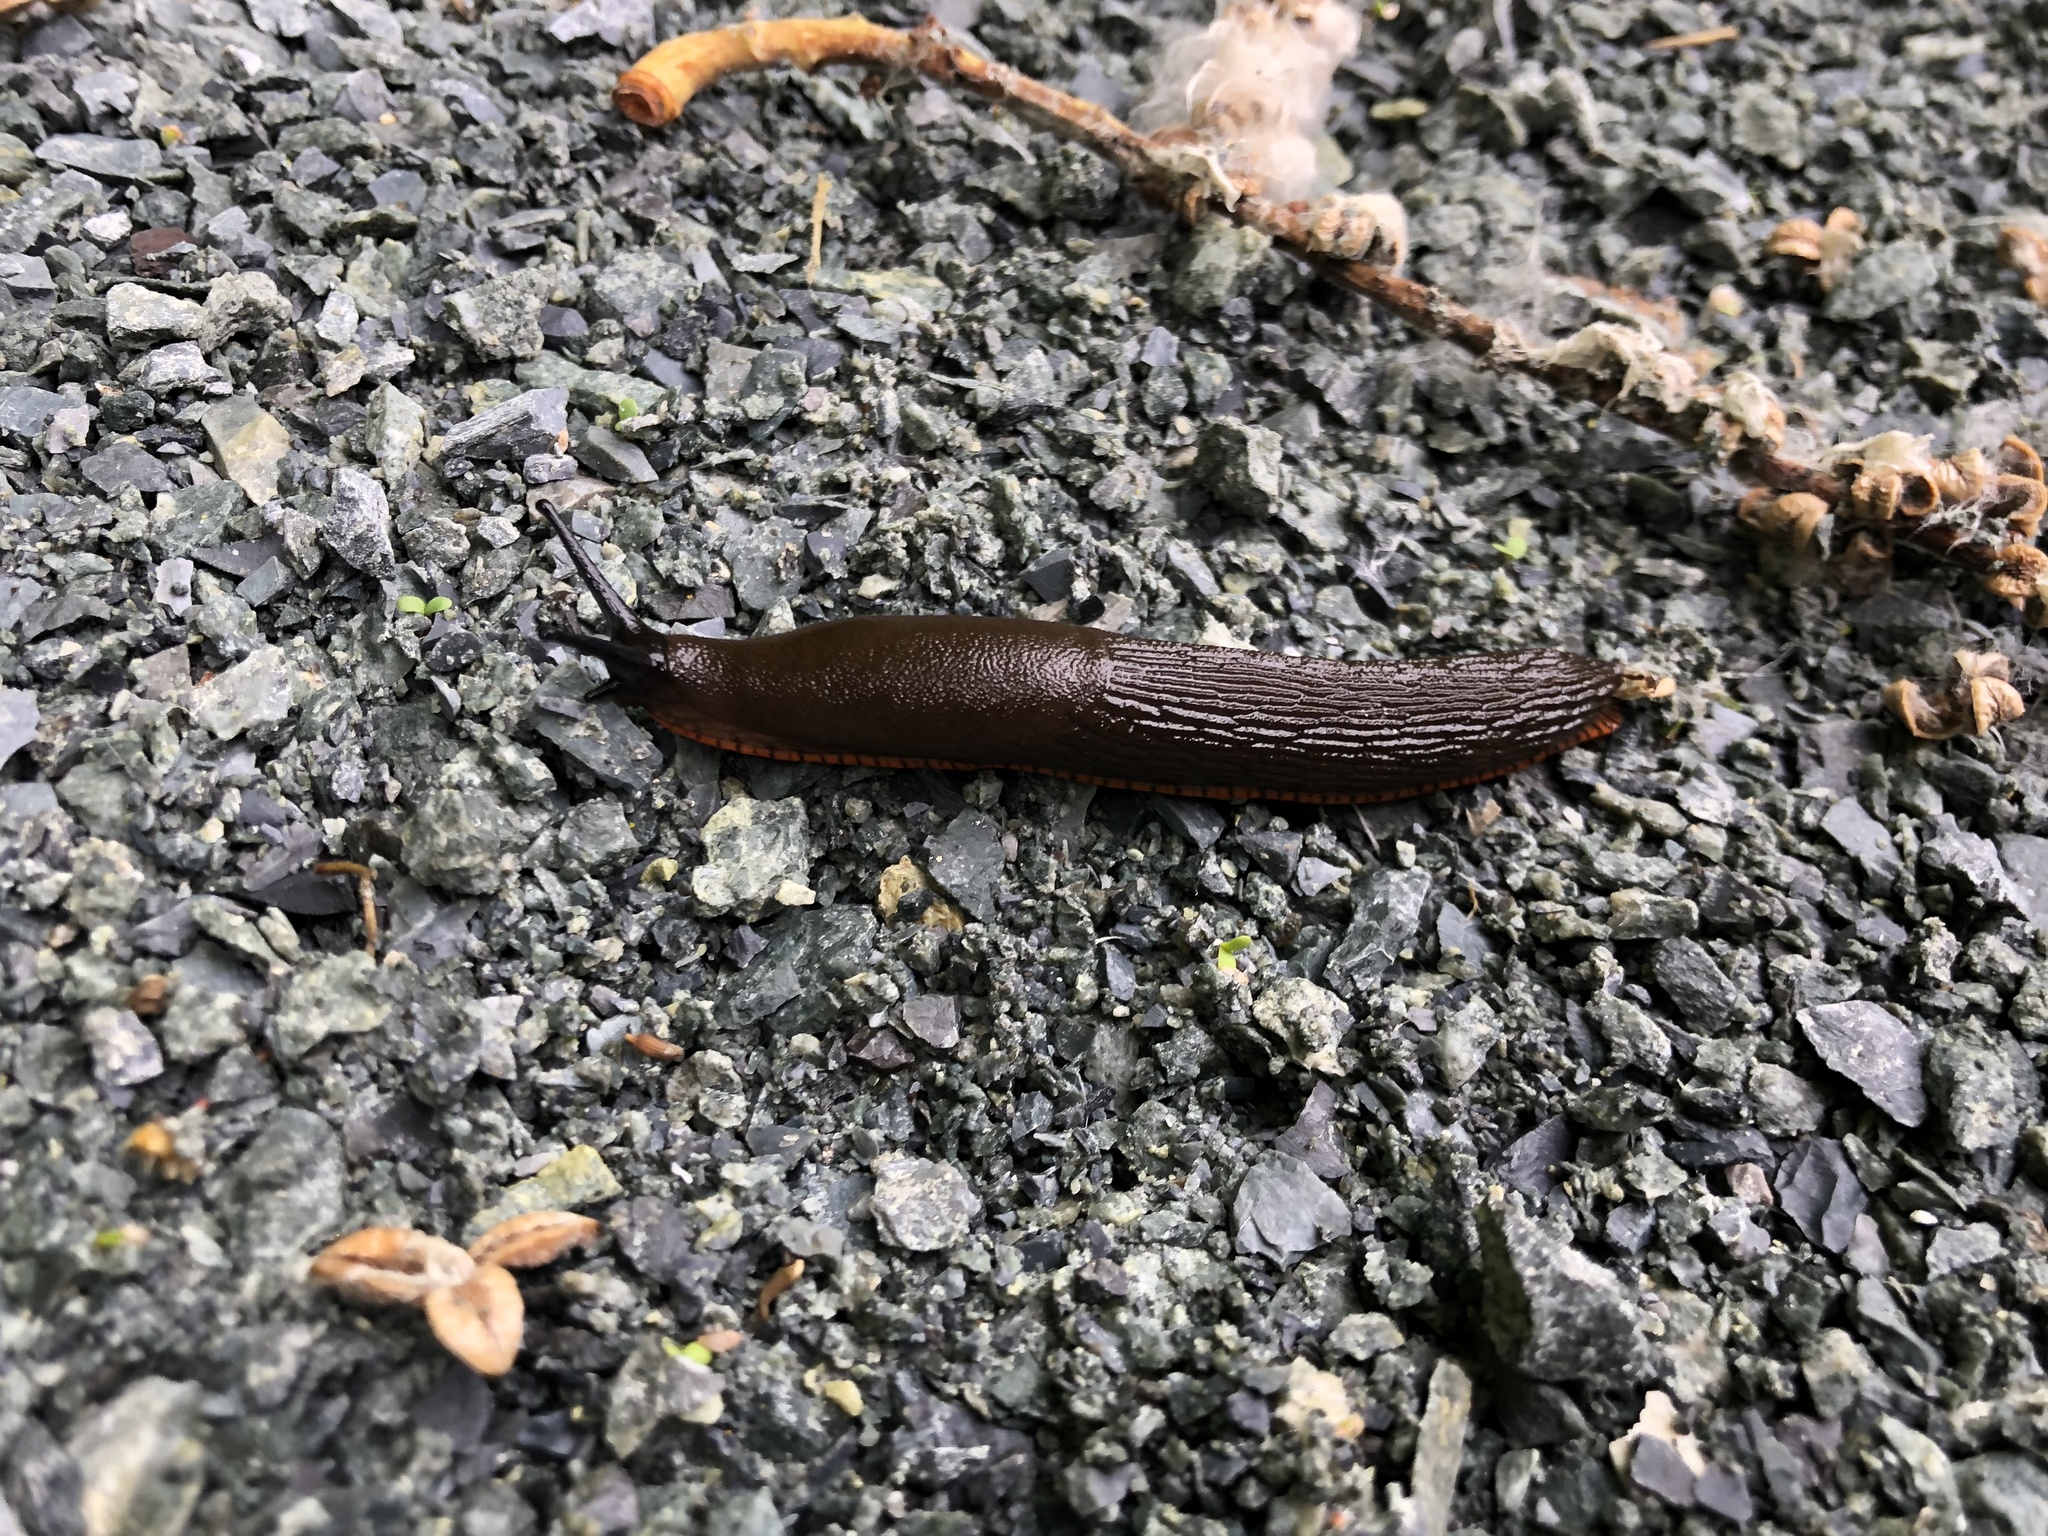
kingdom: Animalia
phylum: Mollusca
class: Gastropoda
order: Stylommatophora
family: Arionidae
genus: Arion
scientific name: Arion rufus
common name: Chocolate arion
